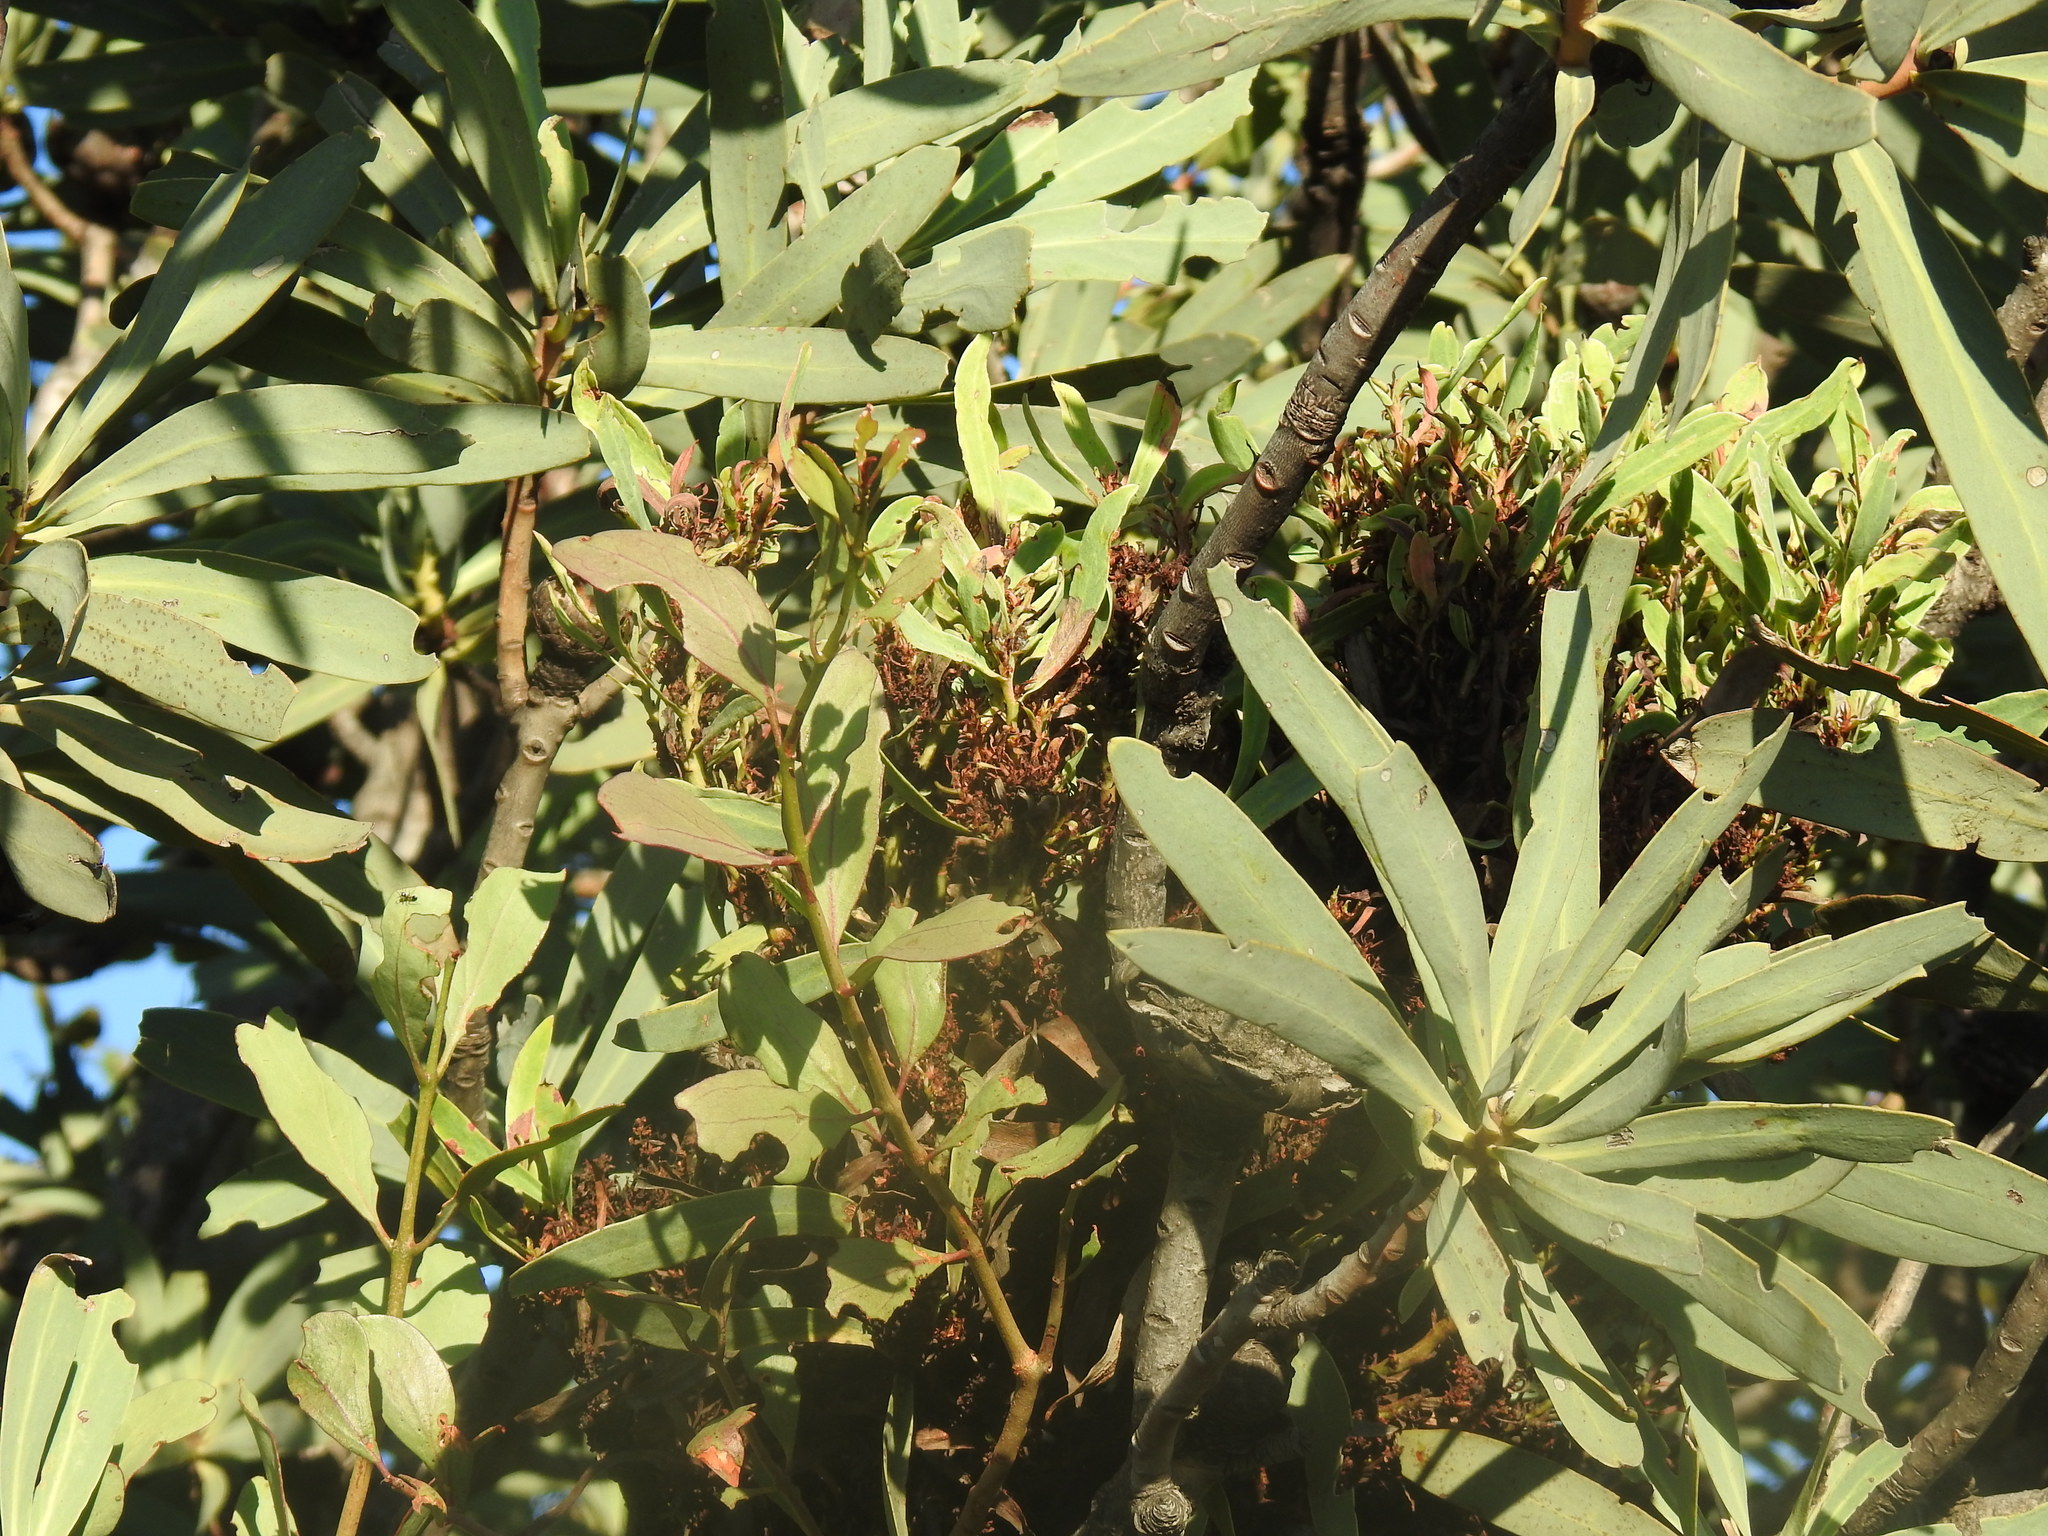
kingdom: Bacteria
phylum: Firmicutes
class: Bacilli
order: Acholeplasmatales
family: Acholeplasmataceae
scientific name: Acholeplasmataceae
